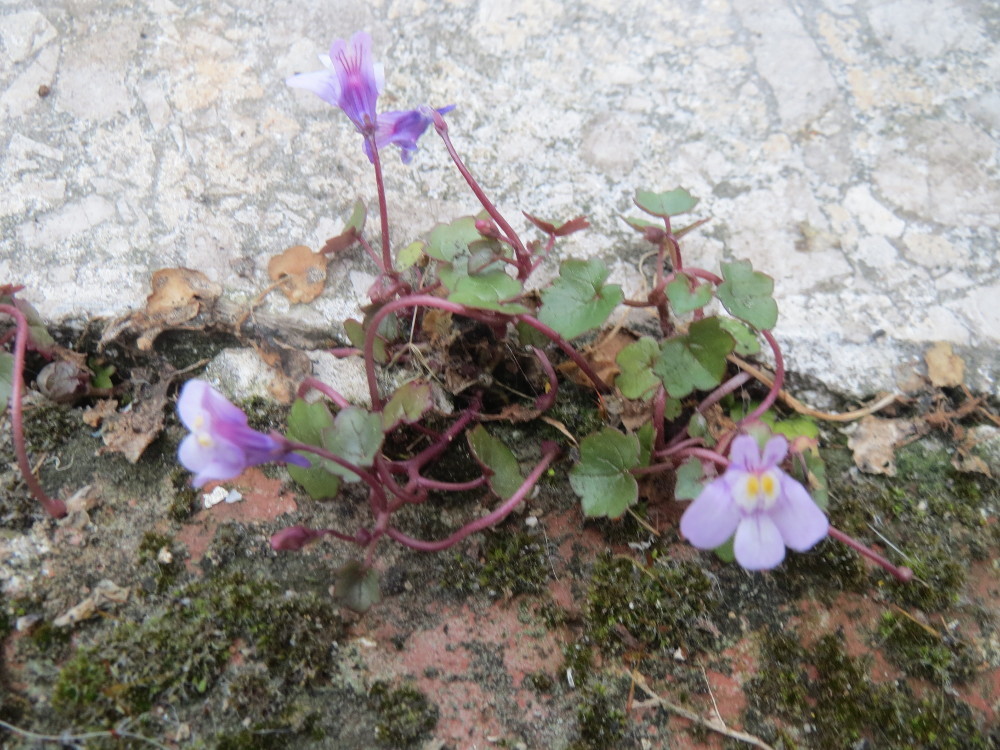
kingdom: Plantae
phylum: Tracheophyta
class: Magnoliopsida
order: Lamiales
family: Plantaginaceae
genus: Cymbalaria
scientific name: Cymbalaria muralis
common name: Ivy-leaved toadflax
